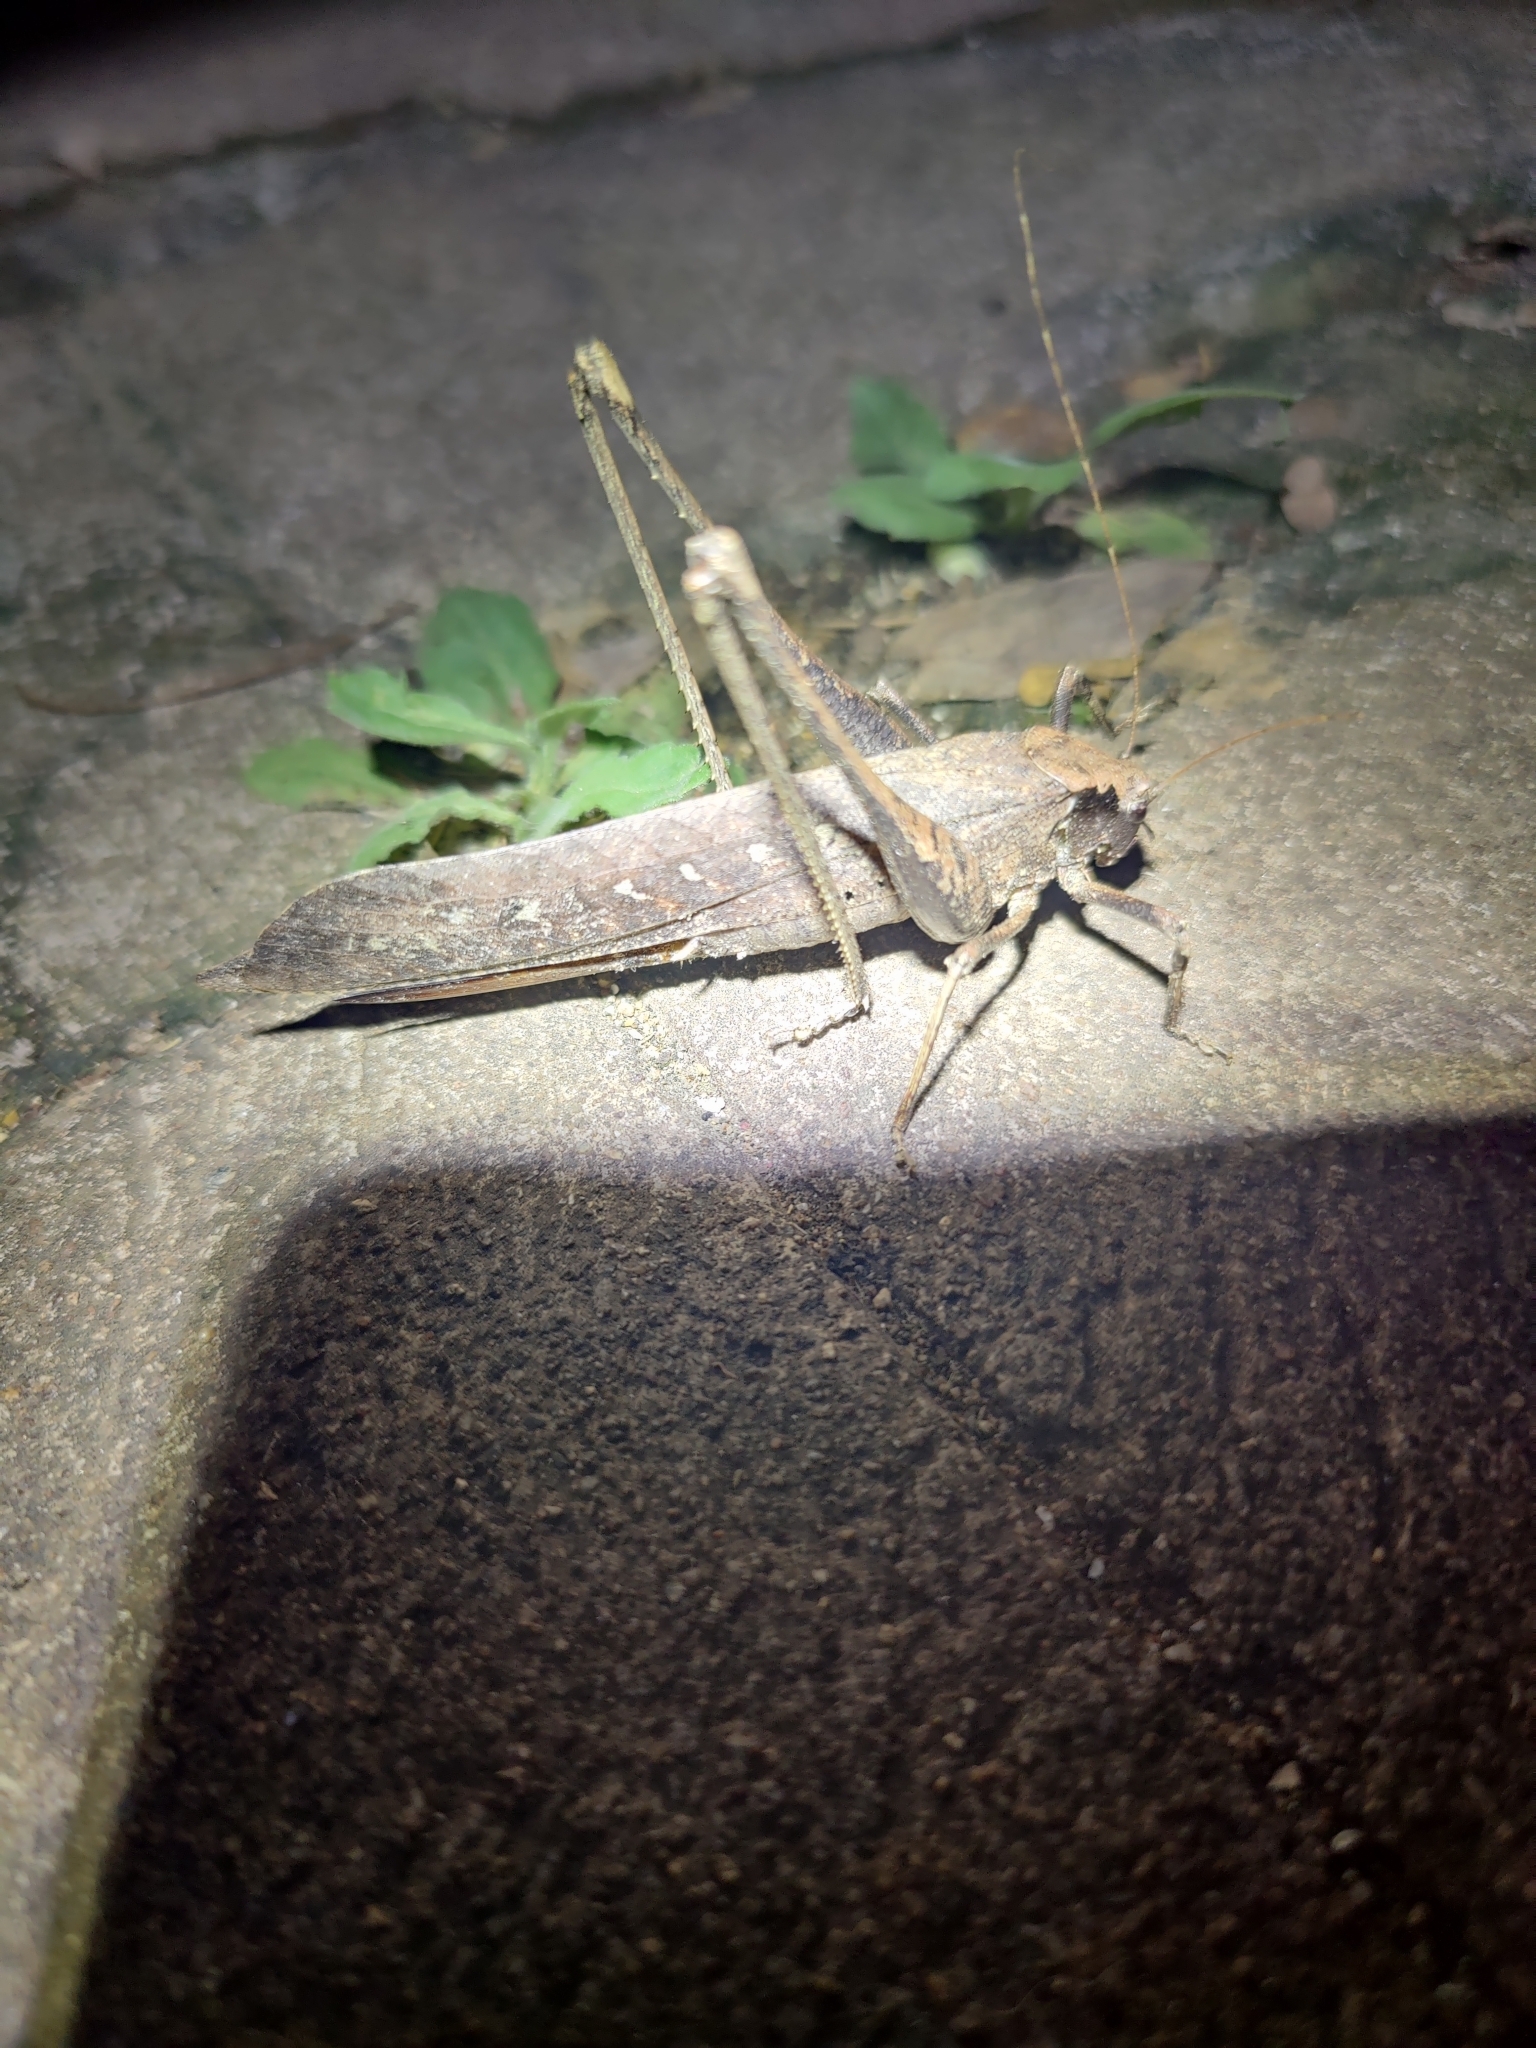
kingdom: Animalia
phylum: Arthropoda
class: Insecta
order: Orthoptera
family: Tettigoniidae
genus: Mecopoda
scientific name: Mecopoda elongata
